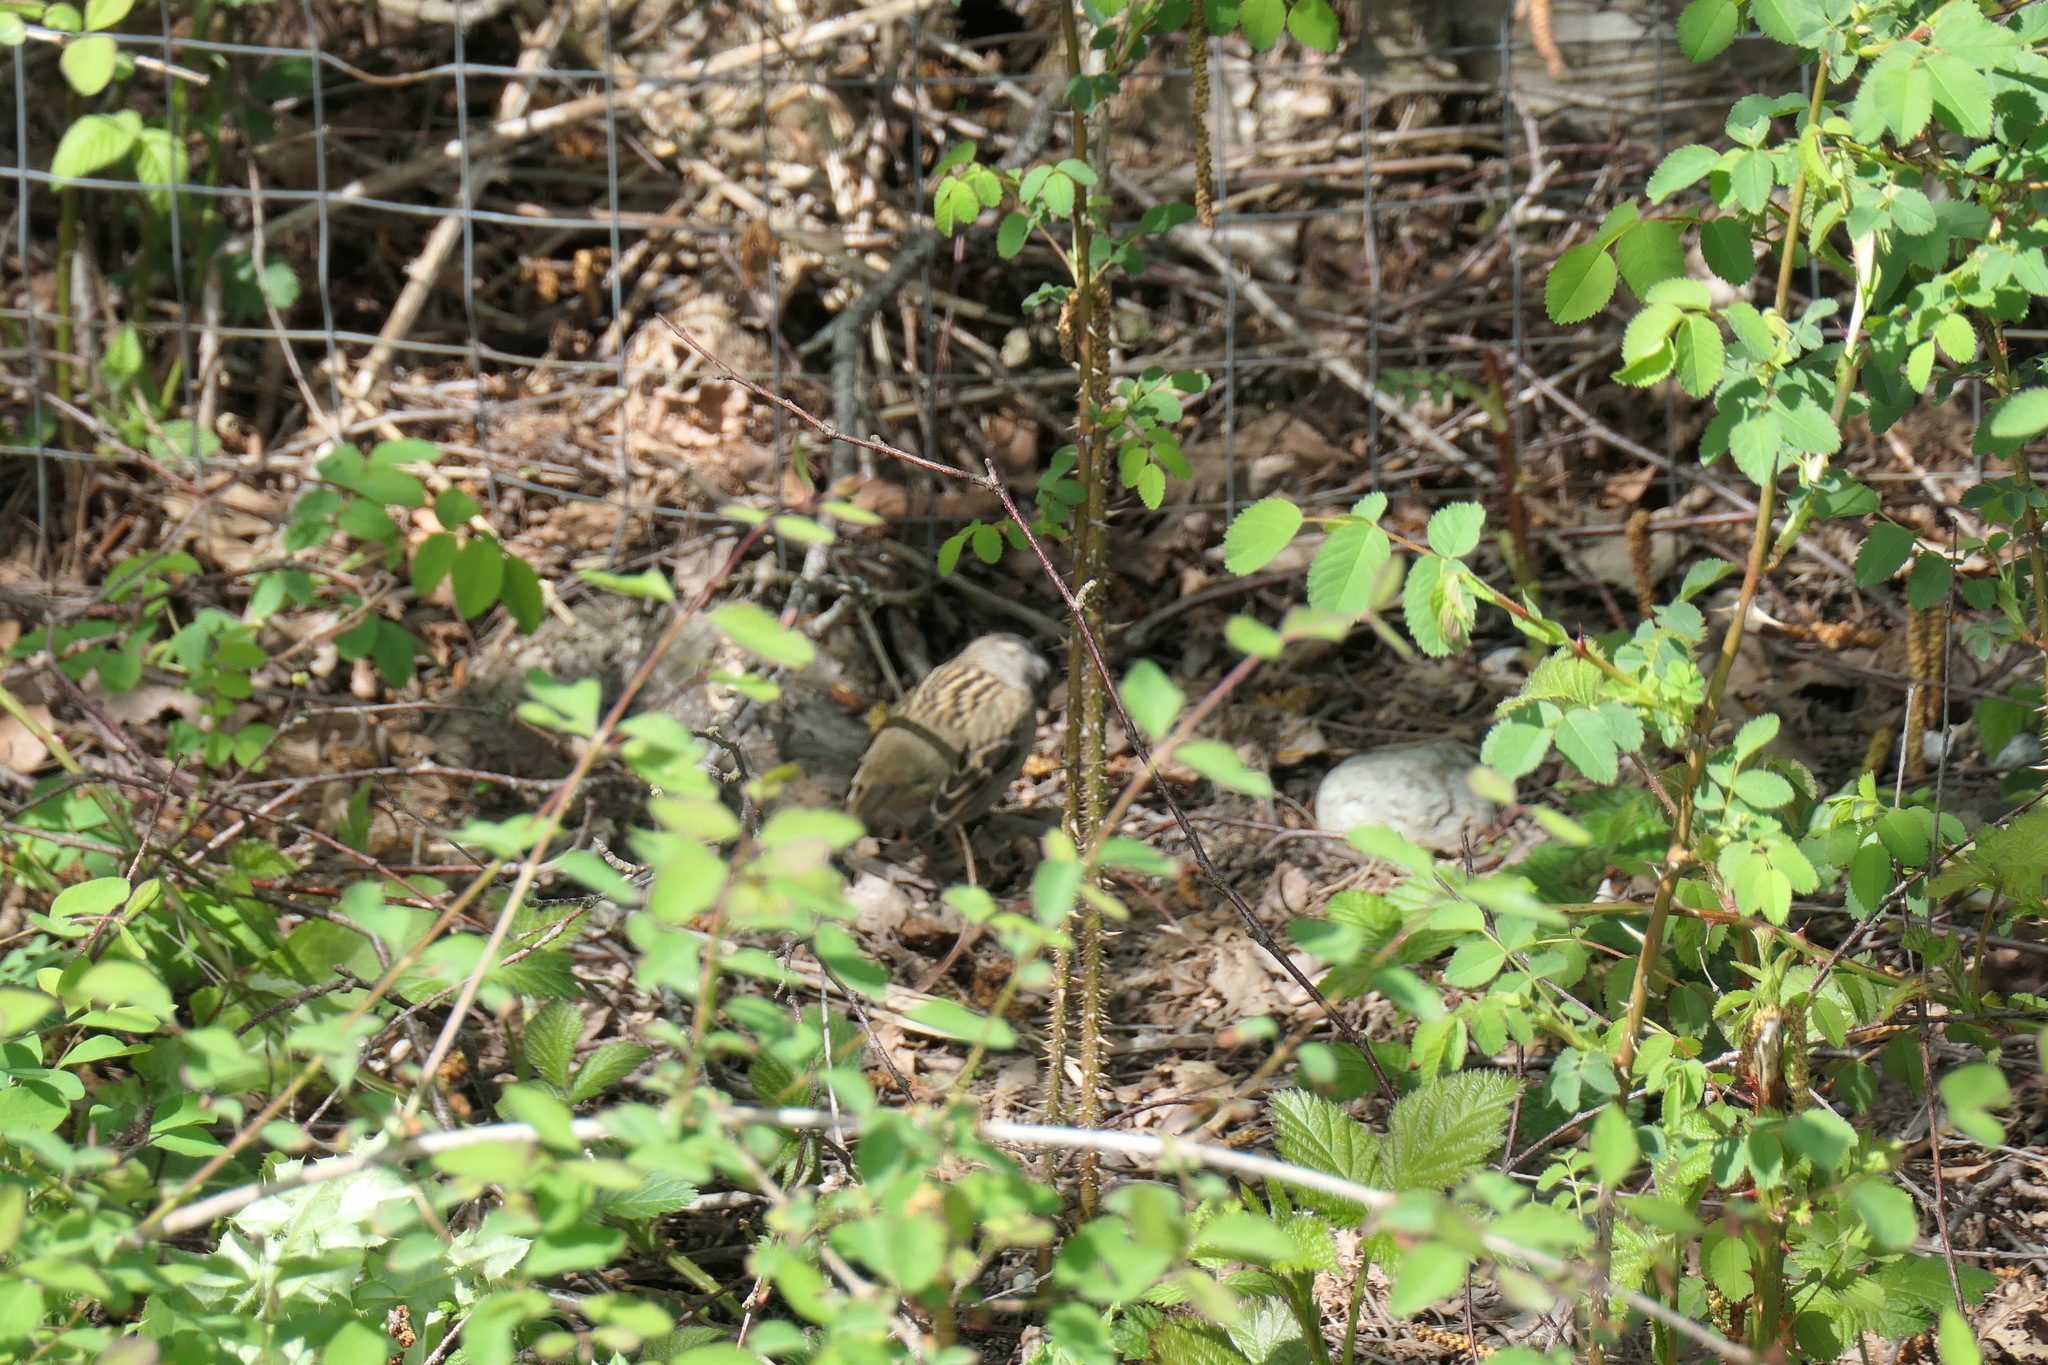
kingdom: Animalia
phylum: Chordata
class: Aves
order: Passeriformes
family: Passerellidae
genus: Zonotrichia
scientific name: Zonotrichia atricapilla
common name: Golden-crowned sparrow
